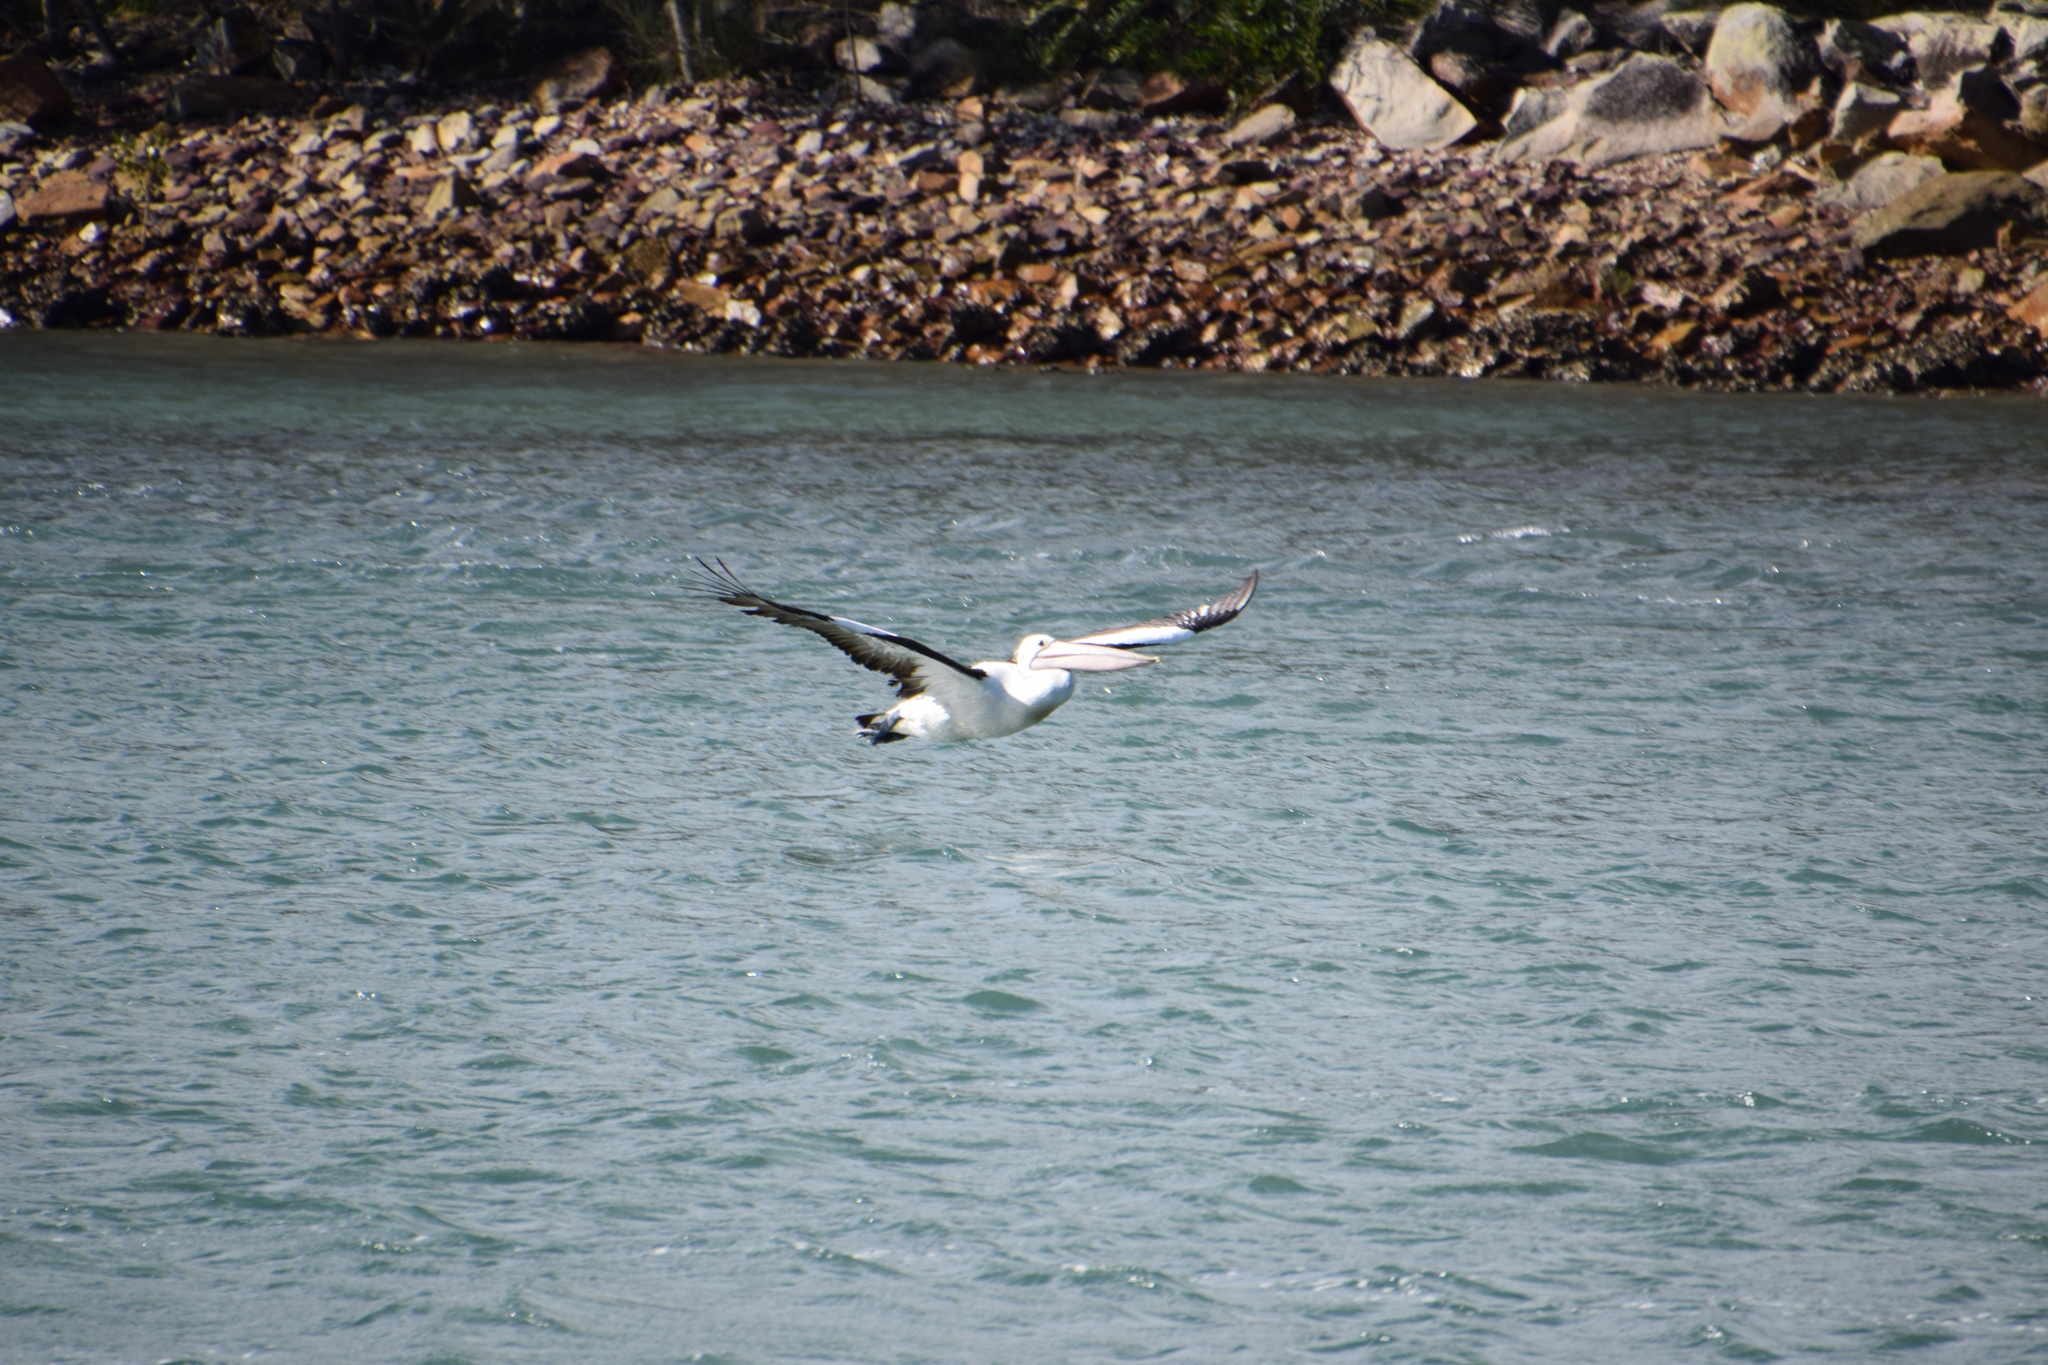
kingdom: Animalia
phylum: Chordata
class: Aves
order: Pelecaniformes
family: Pelecanidae
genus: Pelecanus
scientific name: Pelecanus conspicillatus
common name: Australian pelican
